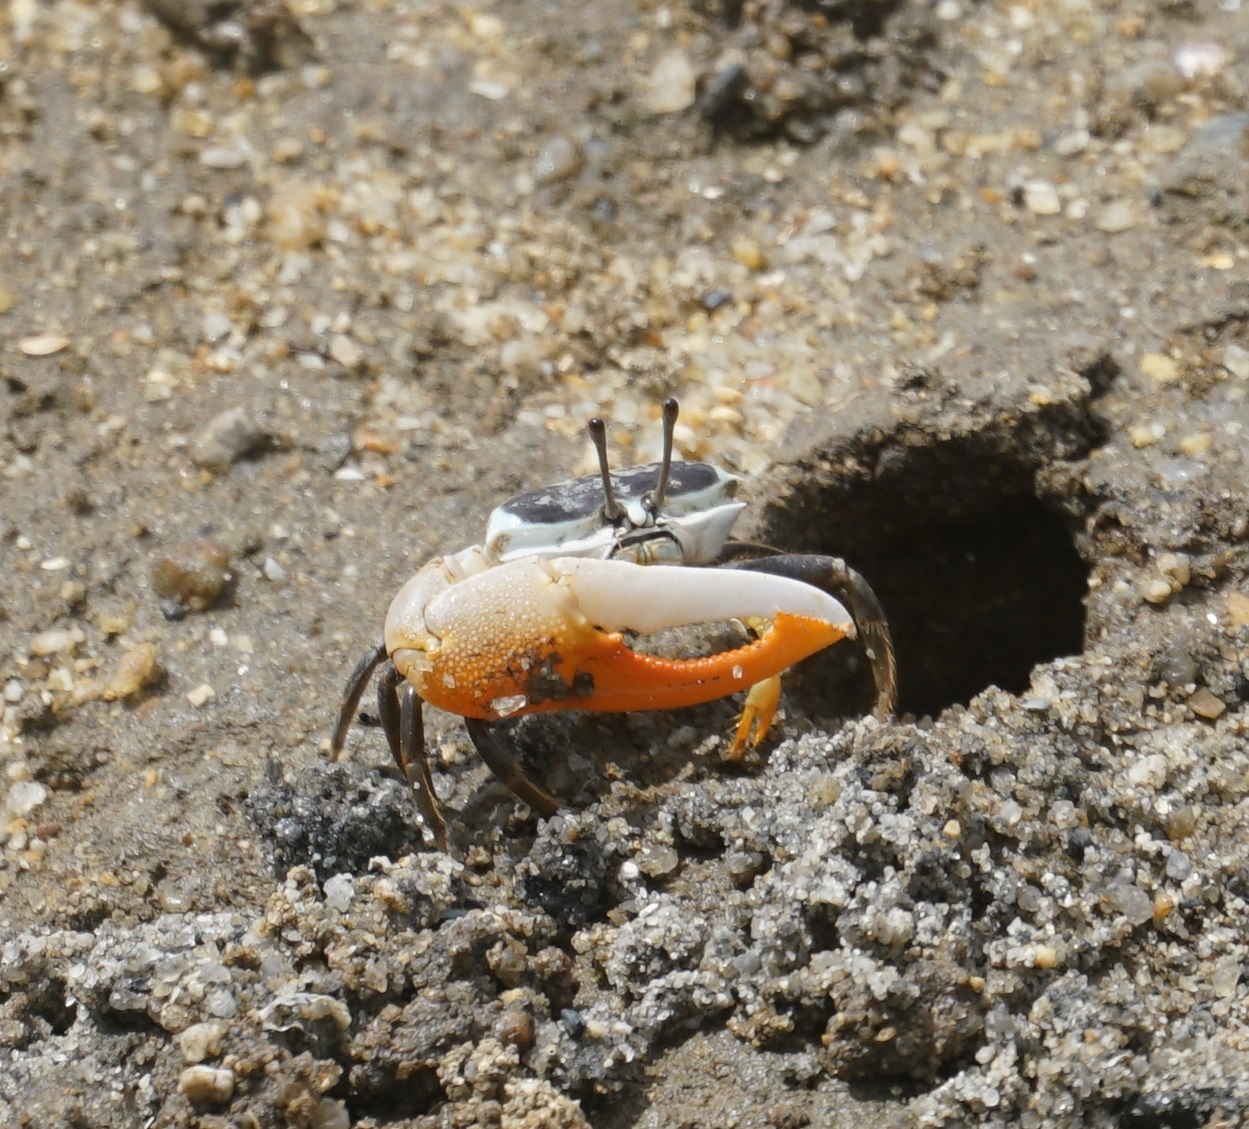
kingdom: Animalia
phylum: Arthropoda
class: Malacostraca
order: Decapoda
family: Ocypodidae
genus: Gelasimus
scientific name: Gelasimus vomeris
